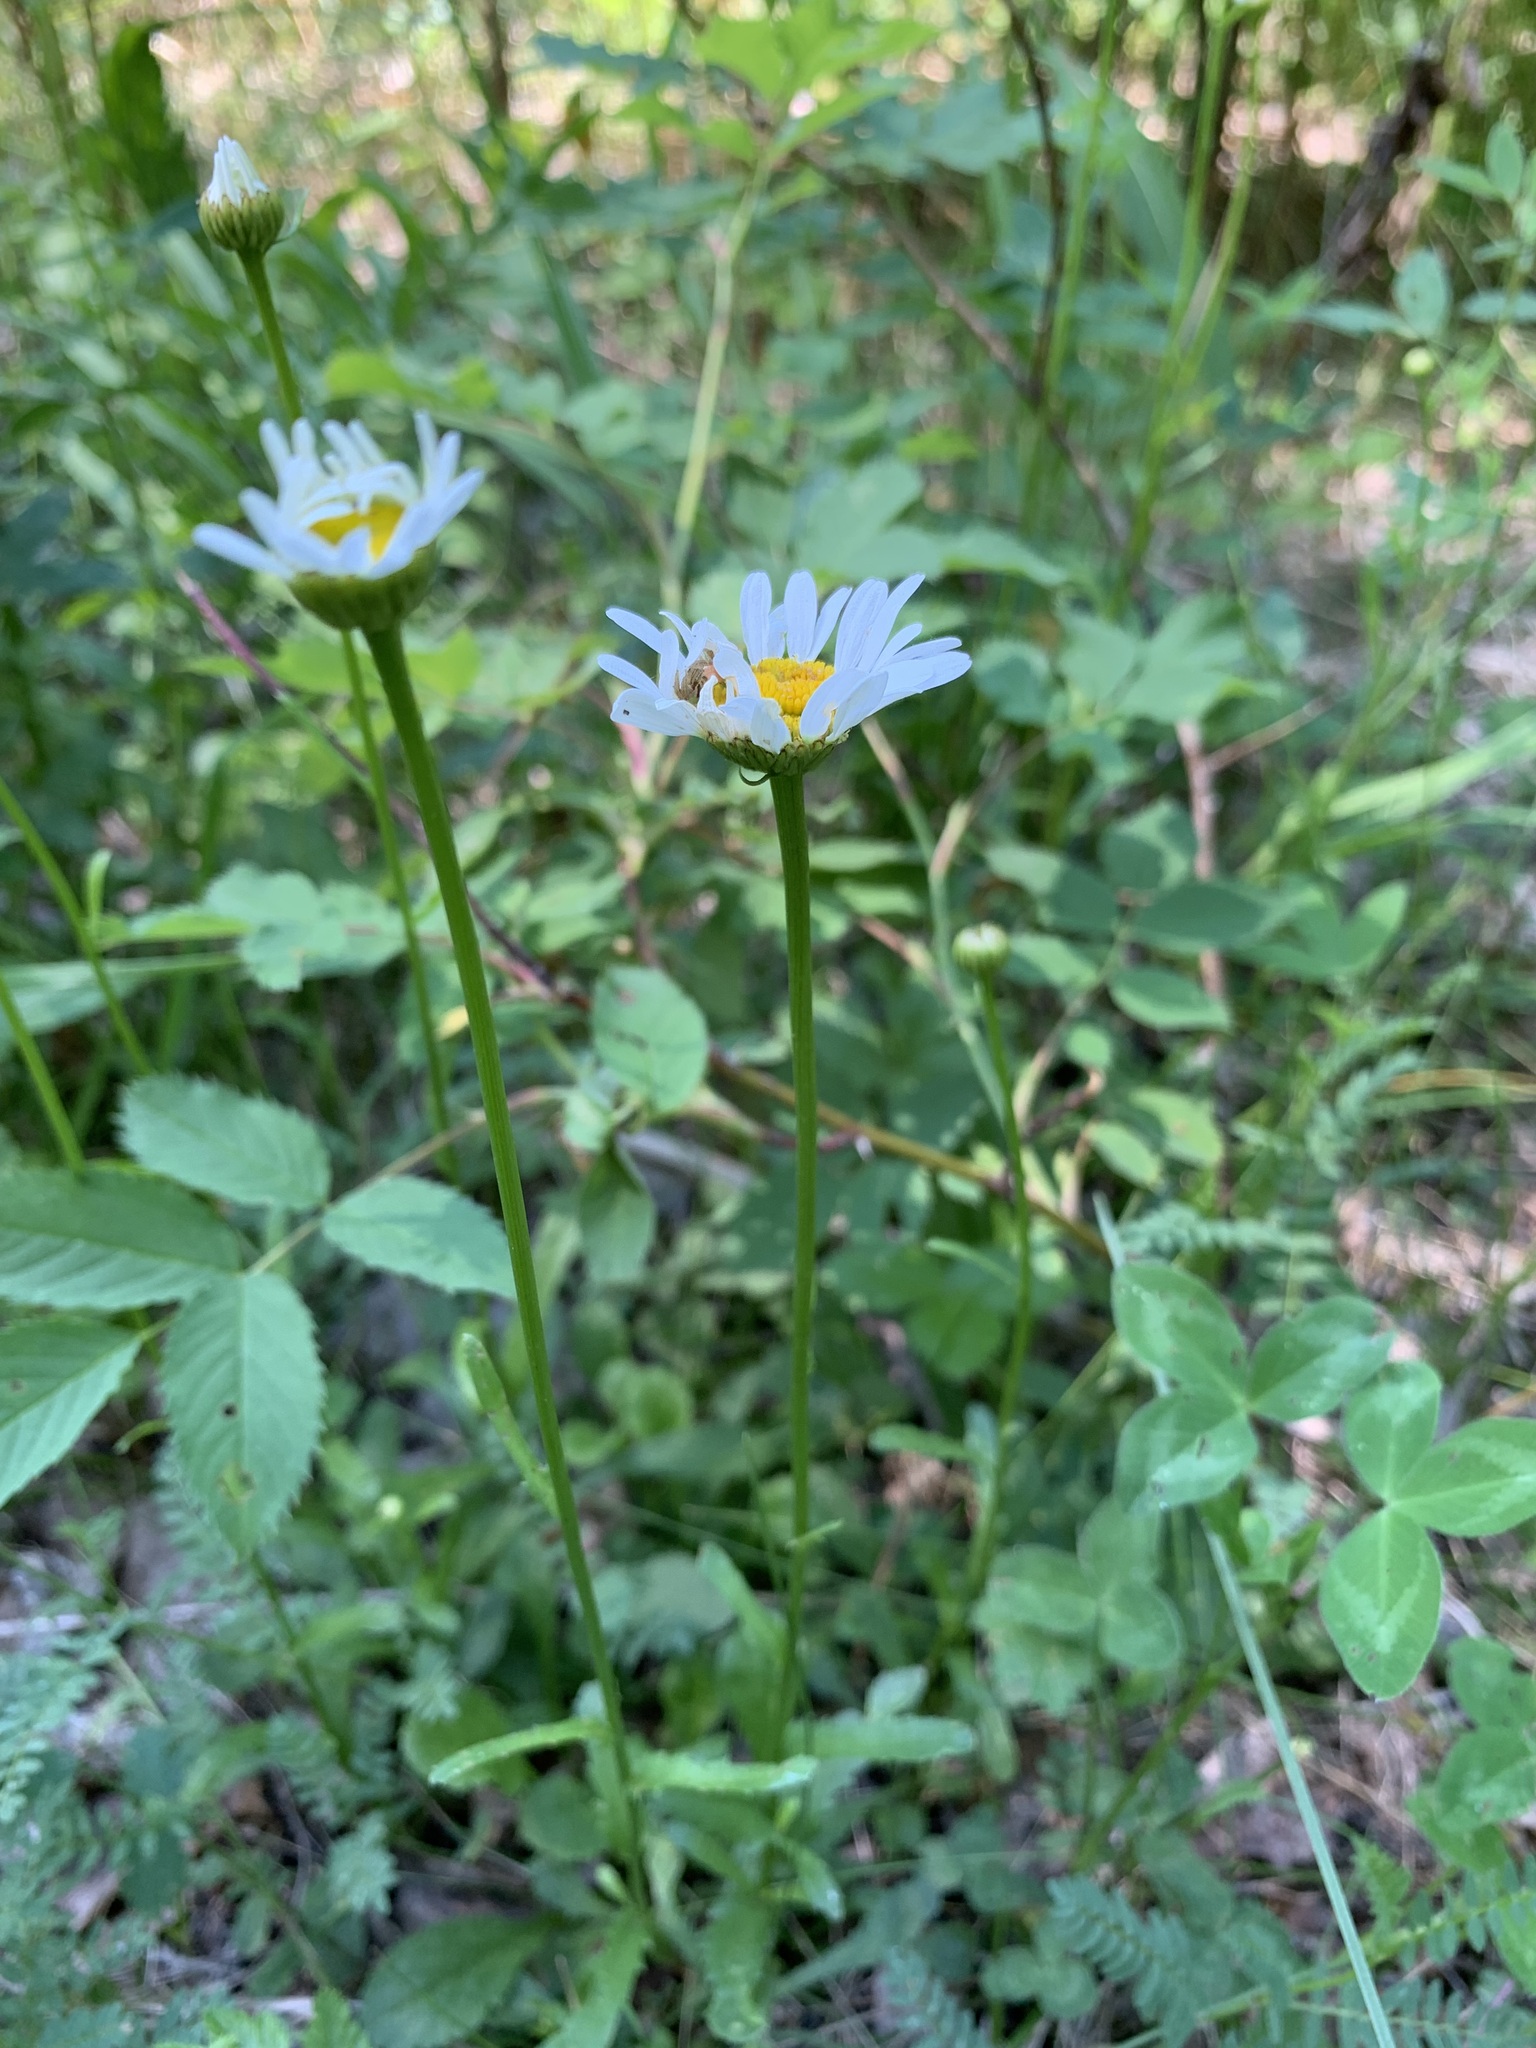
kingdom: Plantae
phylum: Tracheophyta
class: Magnoliopsida
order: Asterales
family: Asteraceae
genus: Leucanthemum
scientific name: Leucanthemum ircutianum
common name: Daisy
